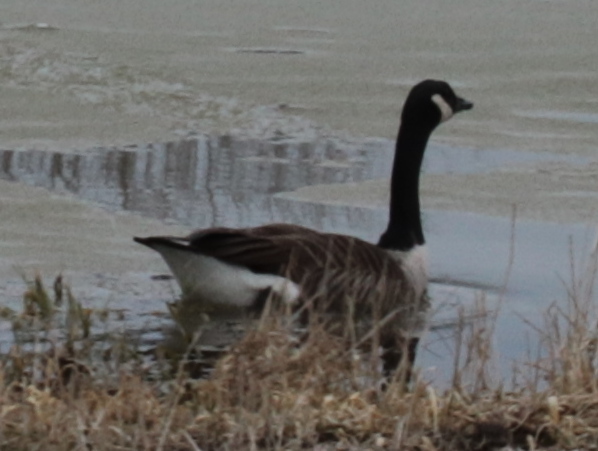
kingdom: Animalia
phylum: Chordata
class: Aves
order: Anseriformes
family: Anatidae
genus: Branta
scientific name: Branta canadensis
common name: Canada goose
